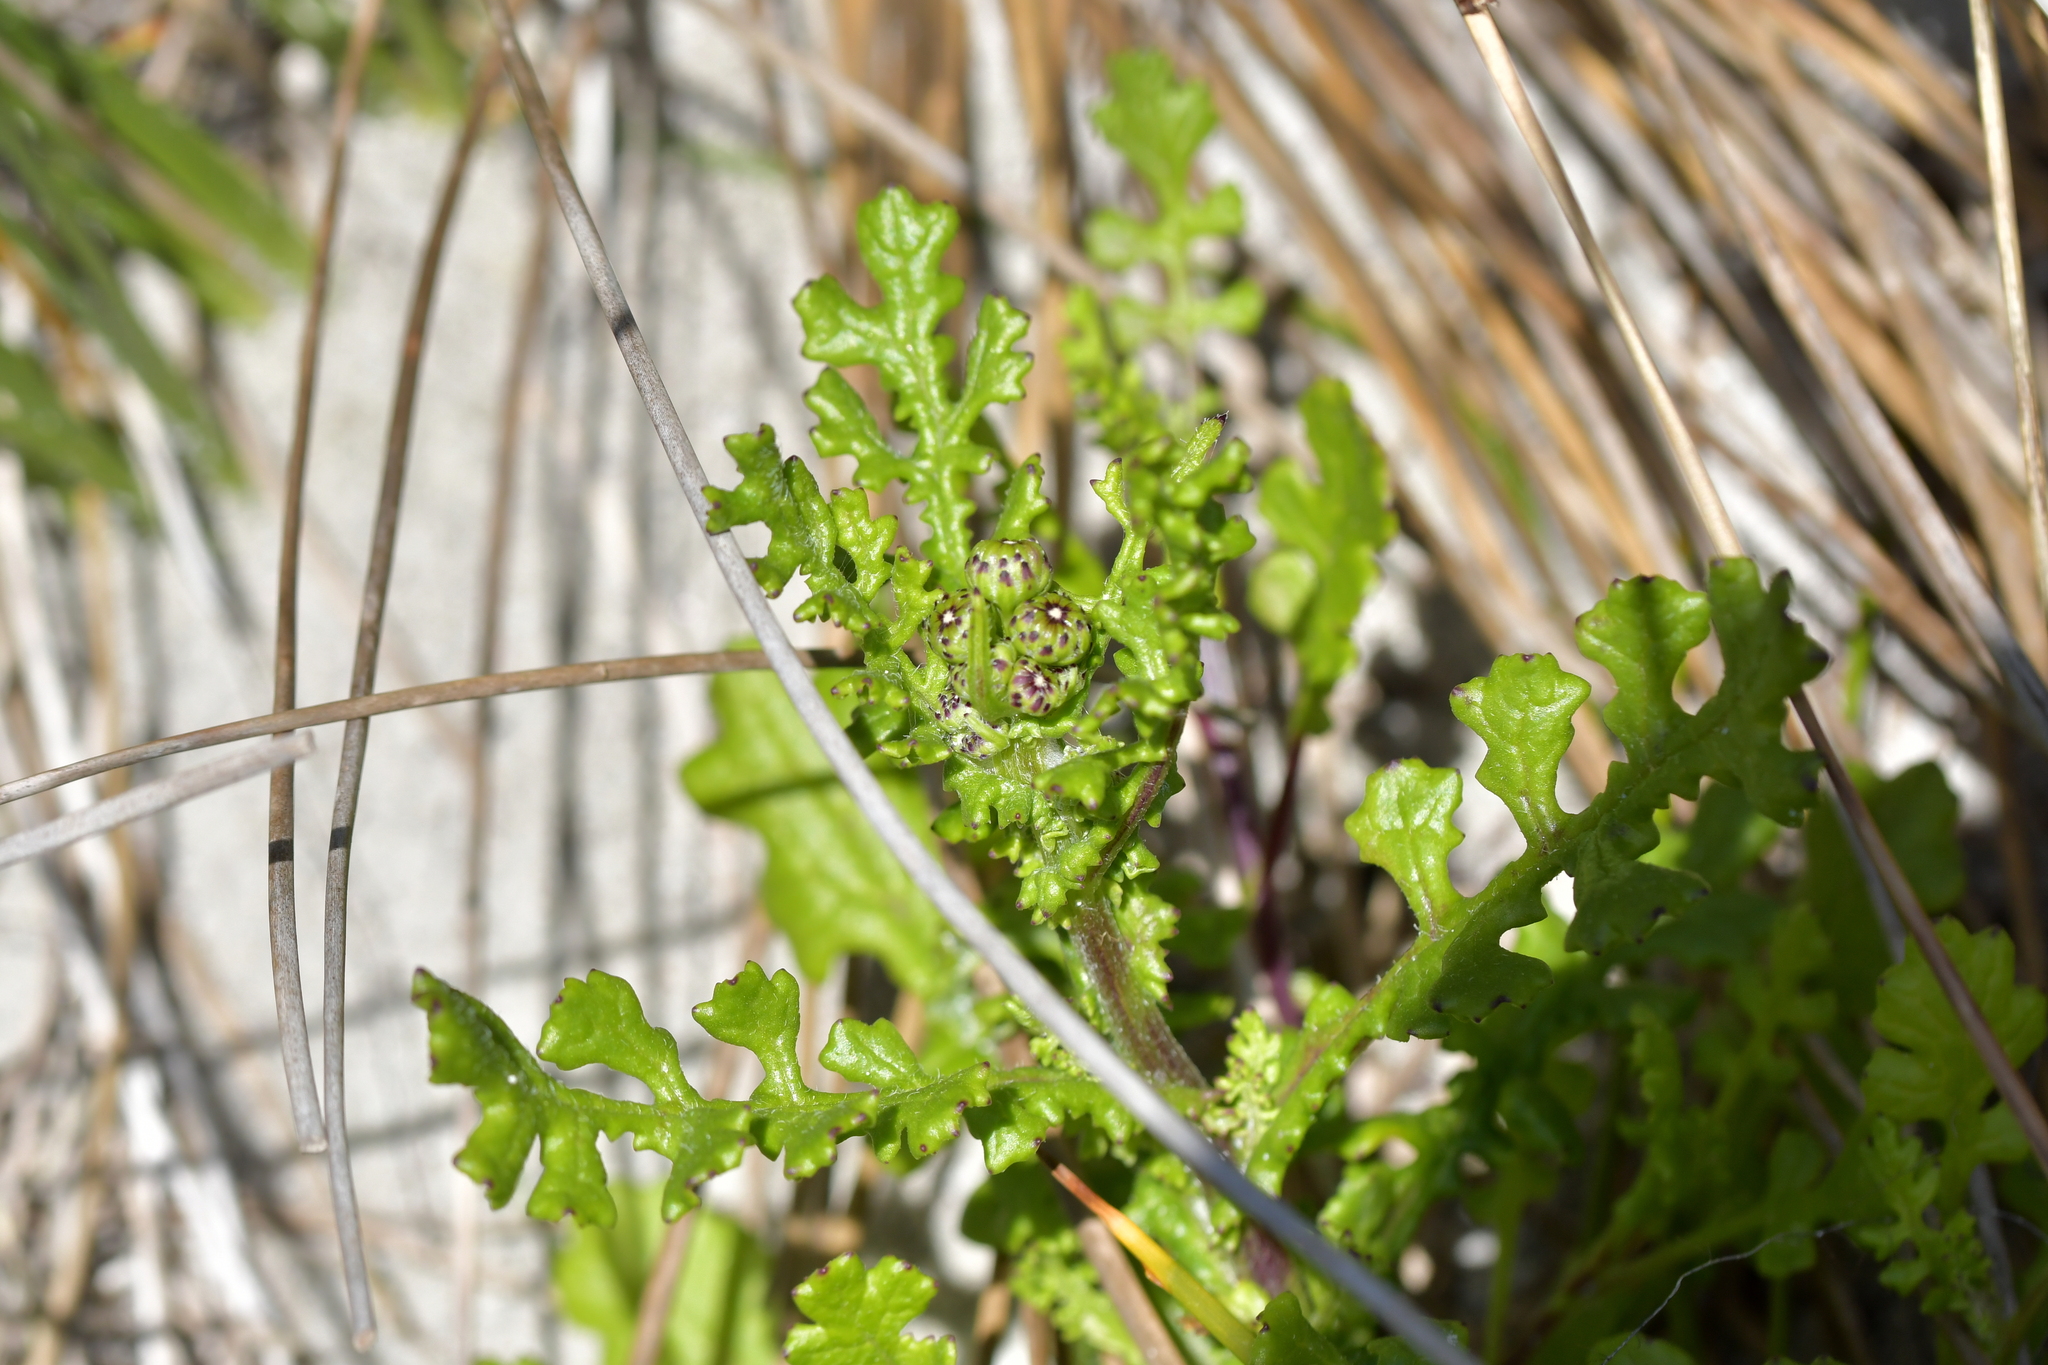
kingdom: Plantae
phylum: Tracheophyta
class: Magnoliopsida
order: Asterales
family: Asteraceae
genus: Senecio
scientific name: Senecio elegans
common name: Purple groundsel
